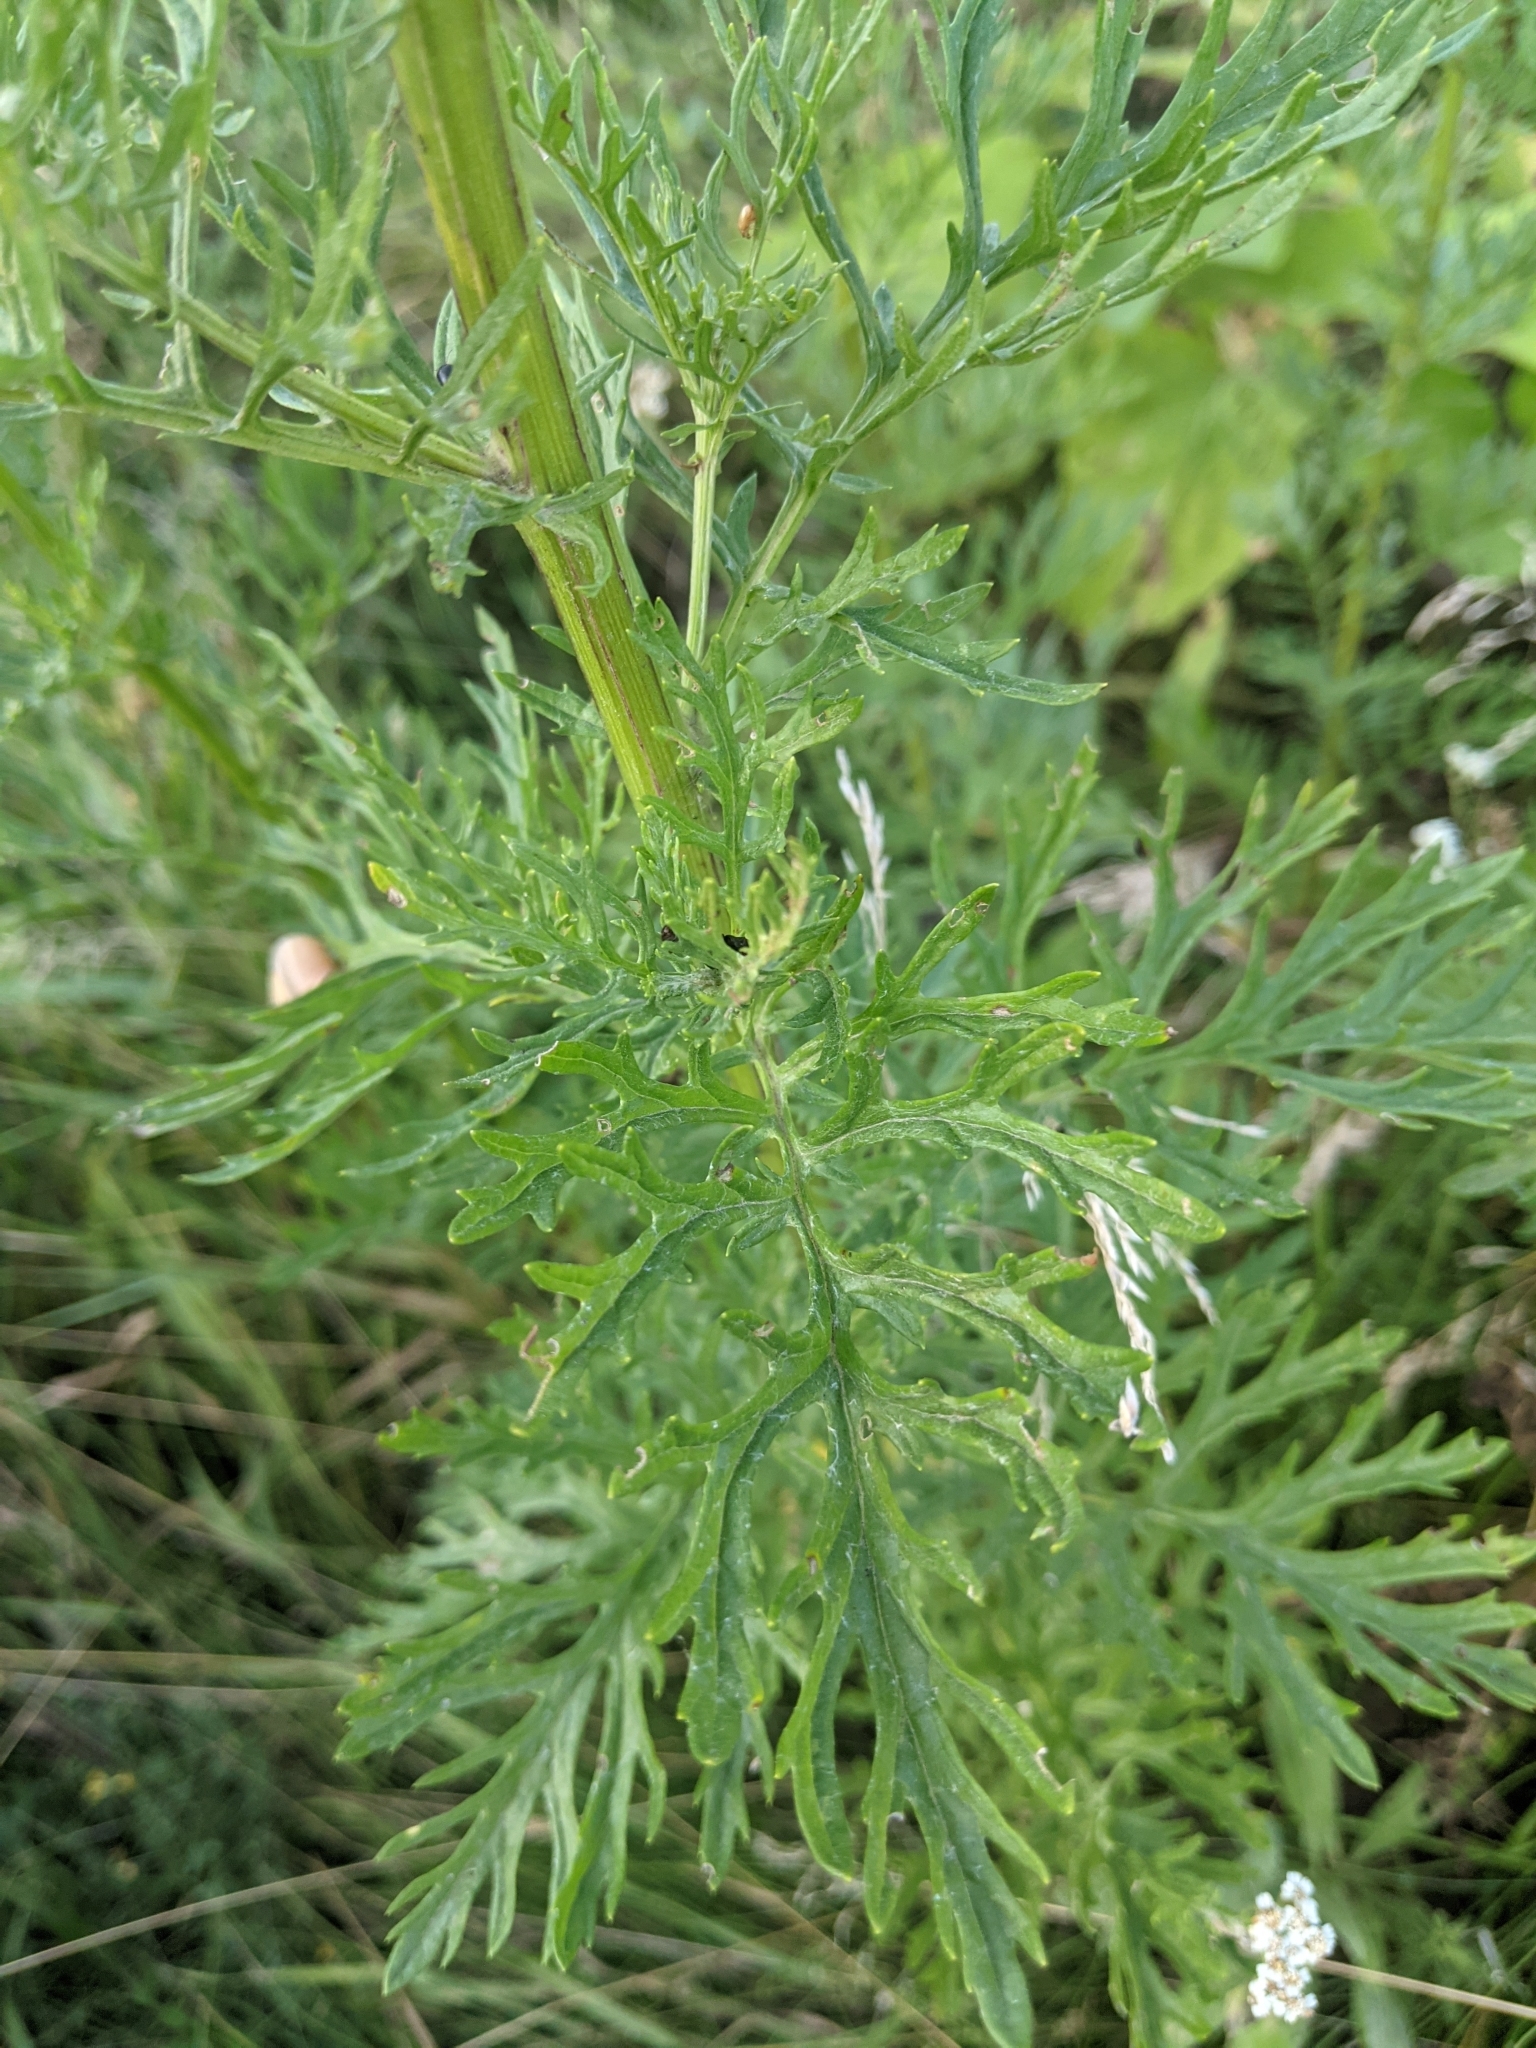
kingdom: Plantae
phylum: Tracheophyta
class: Magnoliopsida
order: Asterales
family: Asteraceae
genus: Jacobaea
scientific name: Jacobaea erucifolia
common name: Hoary ragwort
